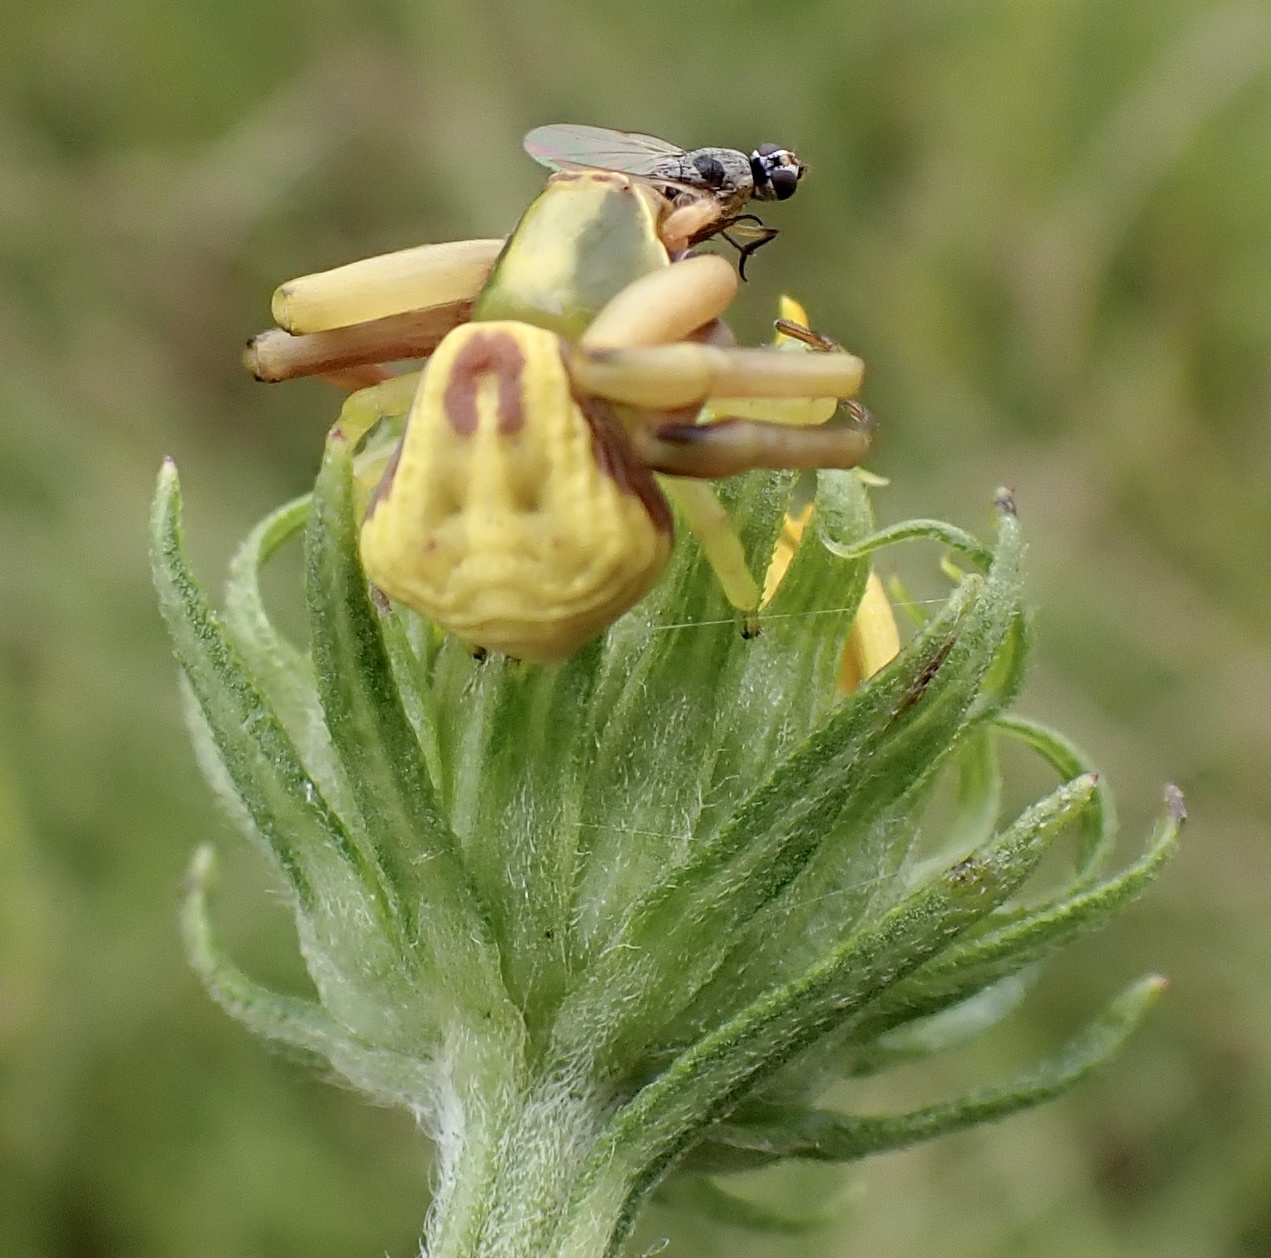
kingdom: Animalia
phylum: Arthropoda
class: Arachnida
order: Araneae
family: Thomisidae
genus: Misumenoides
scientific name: Misumenoides formosipes
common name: White-banded crab spider
